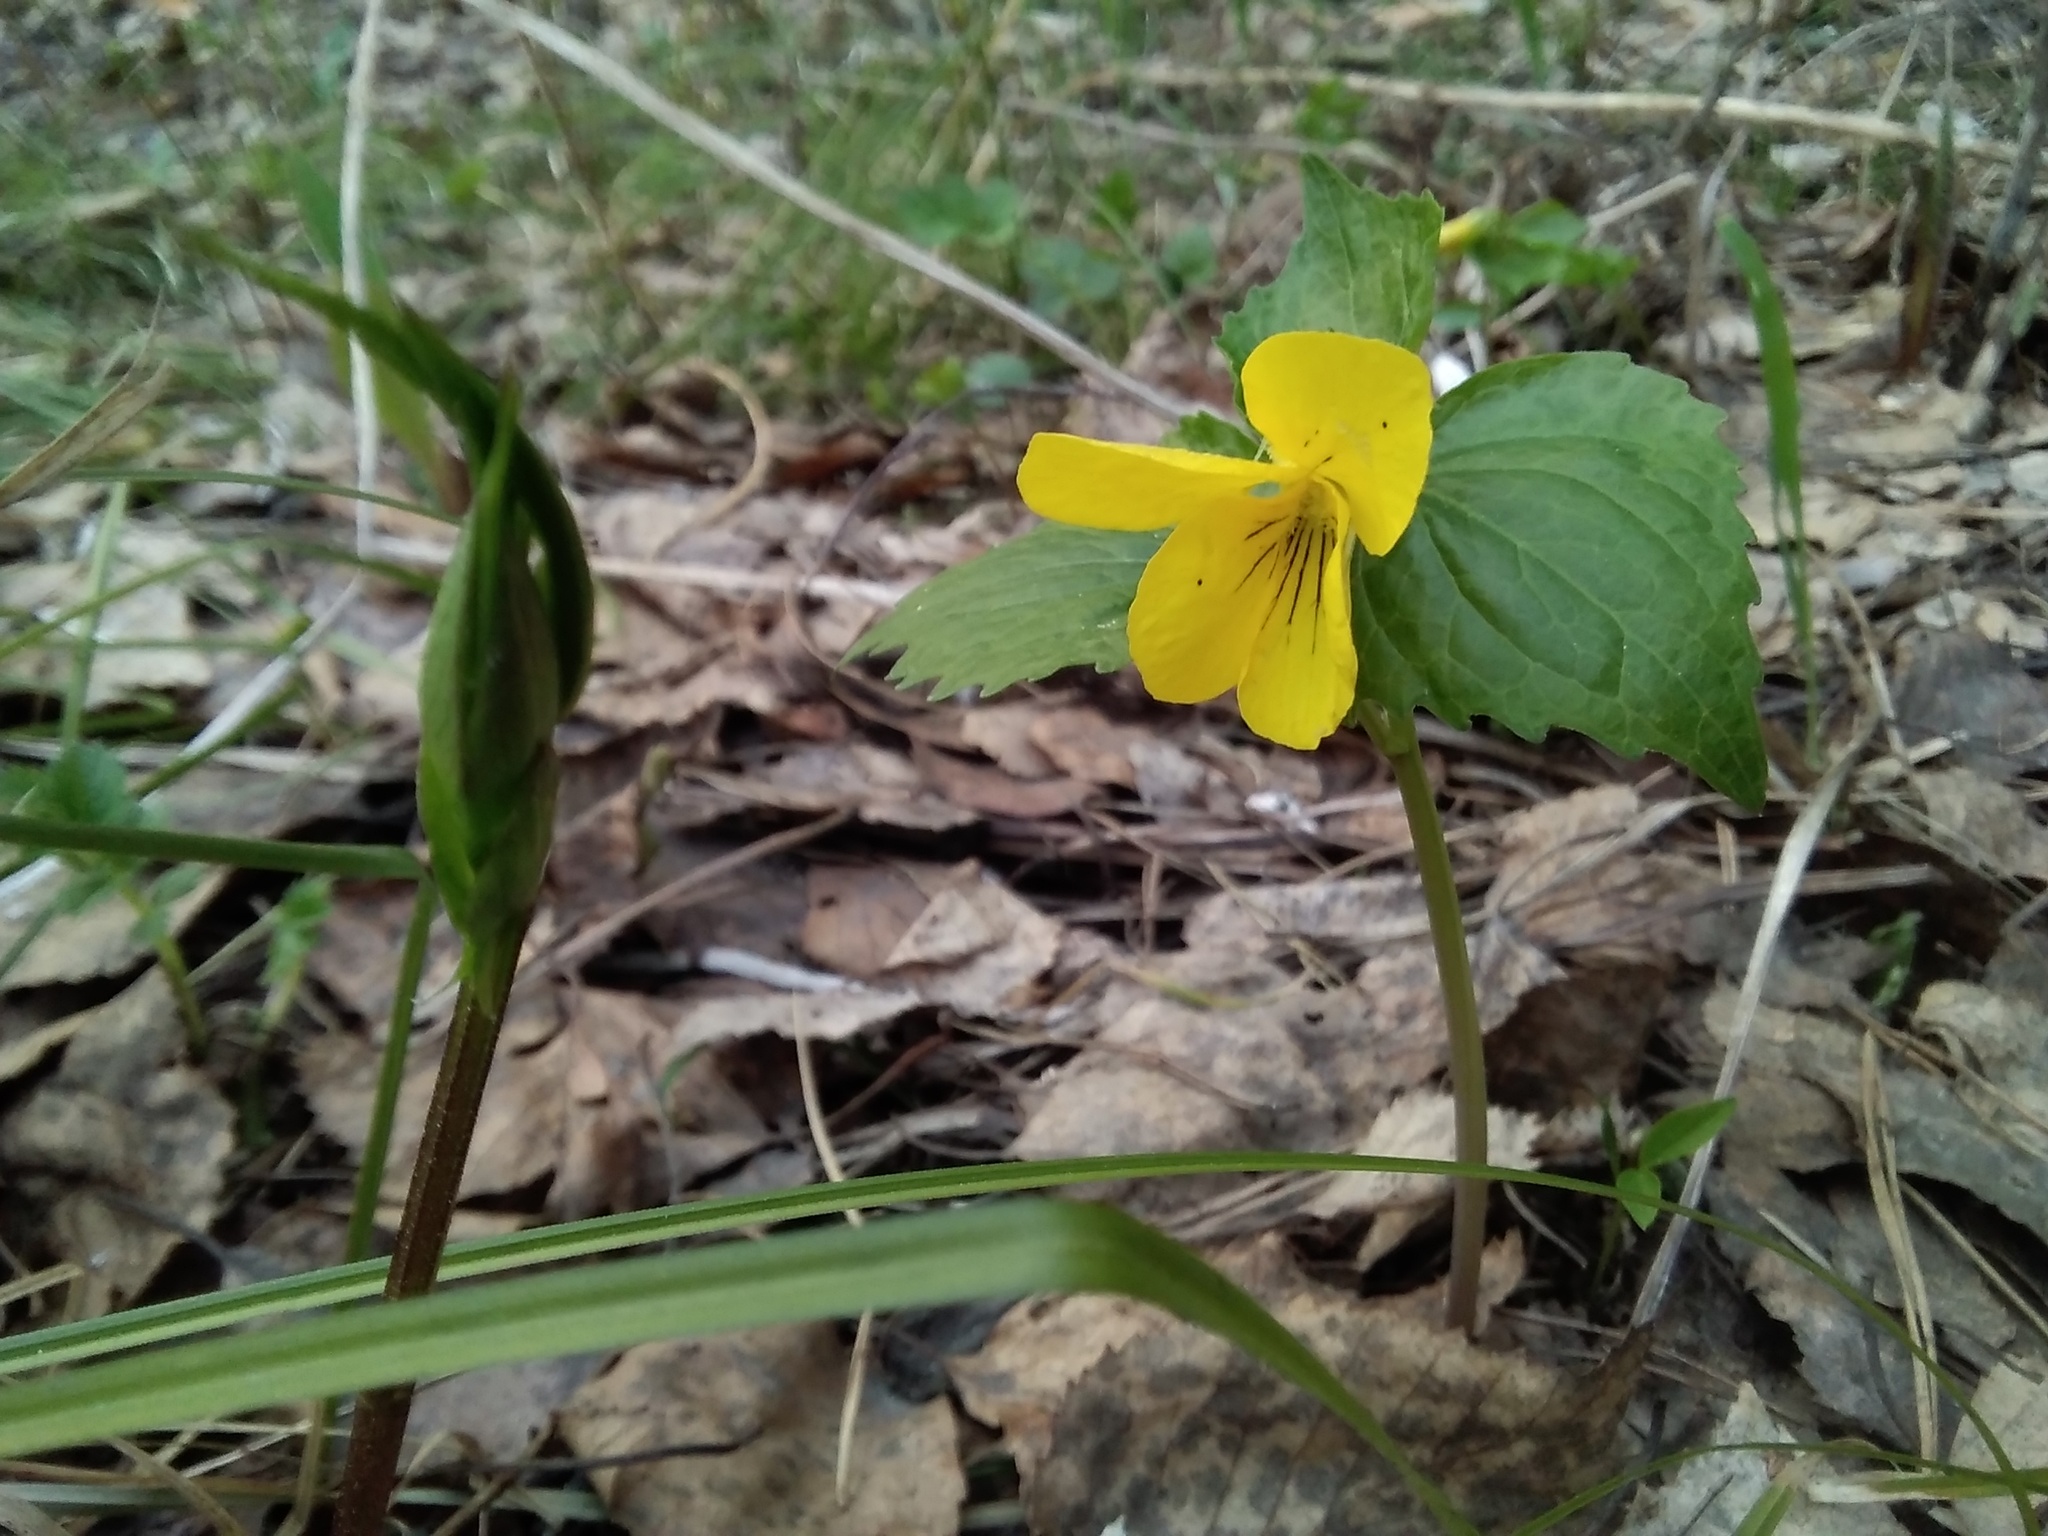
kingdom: Plantae
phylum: Tracheophyta
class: Magnoliopsida
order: Malpighiales
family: Violaceae
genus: Viola
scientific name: Viola uniflora
